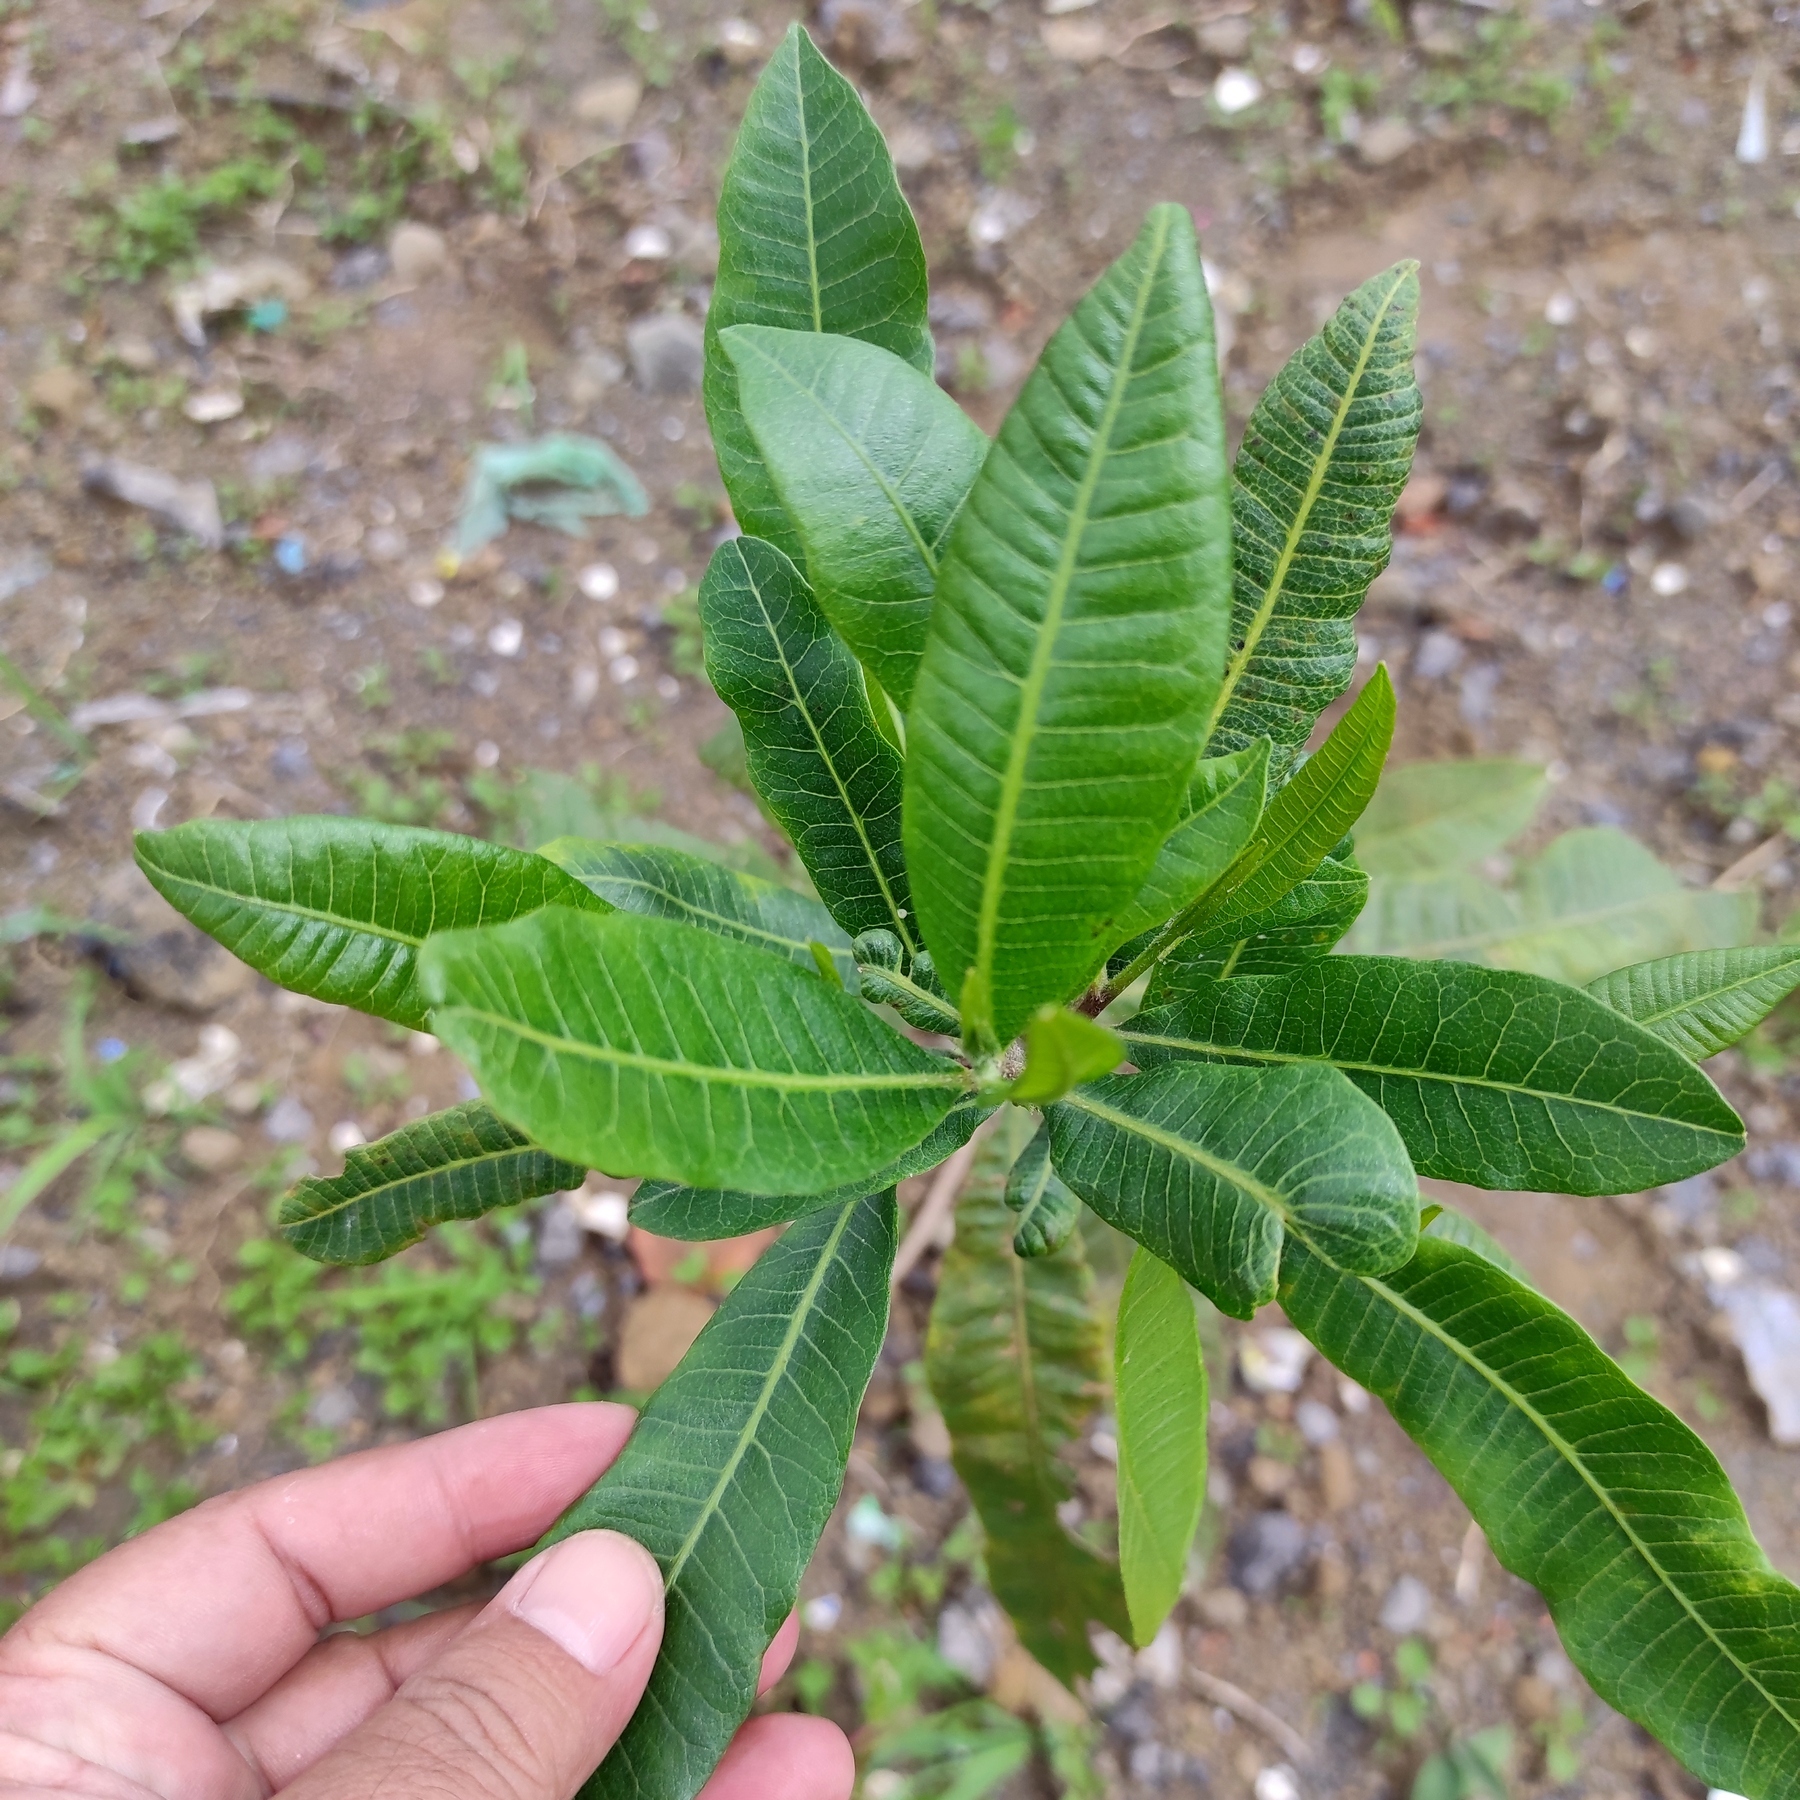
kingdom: Plantae
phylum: Tracheophyta
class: Magnoliopsida
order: Sapindales
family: Sapindaceae
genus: Dodonaea
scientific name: Dodonaea viscosa
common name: Hopbush
